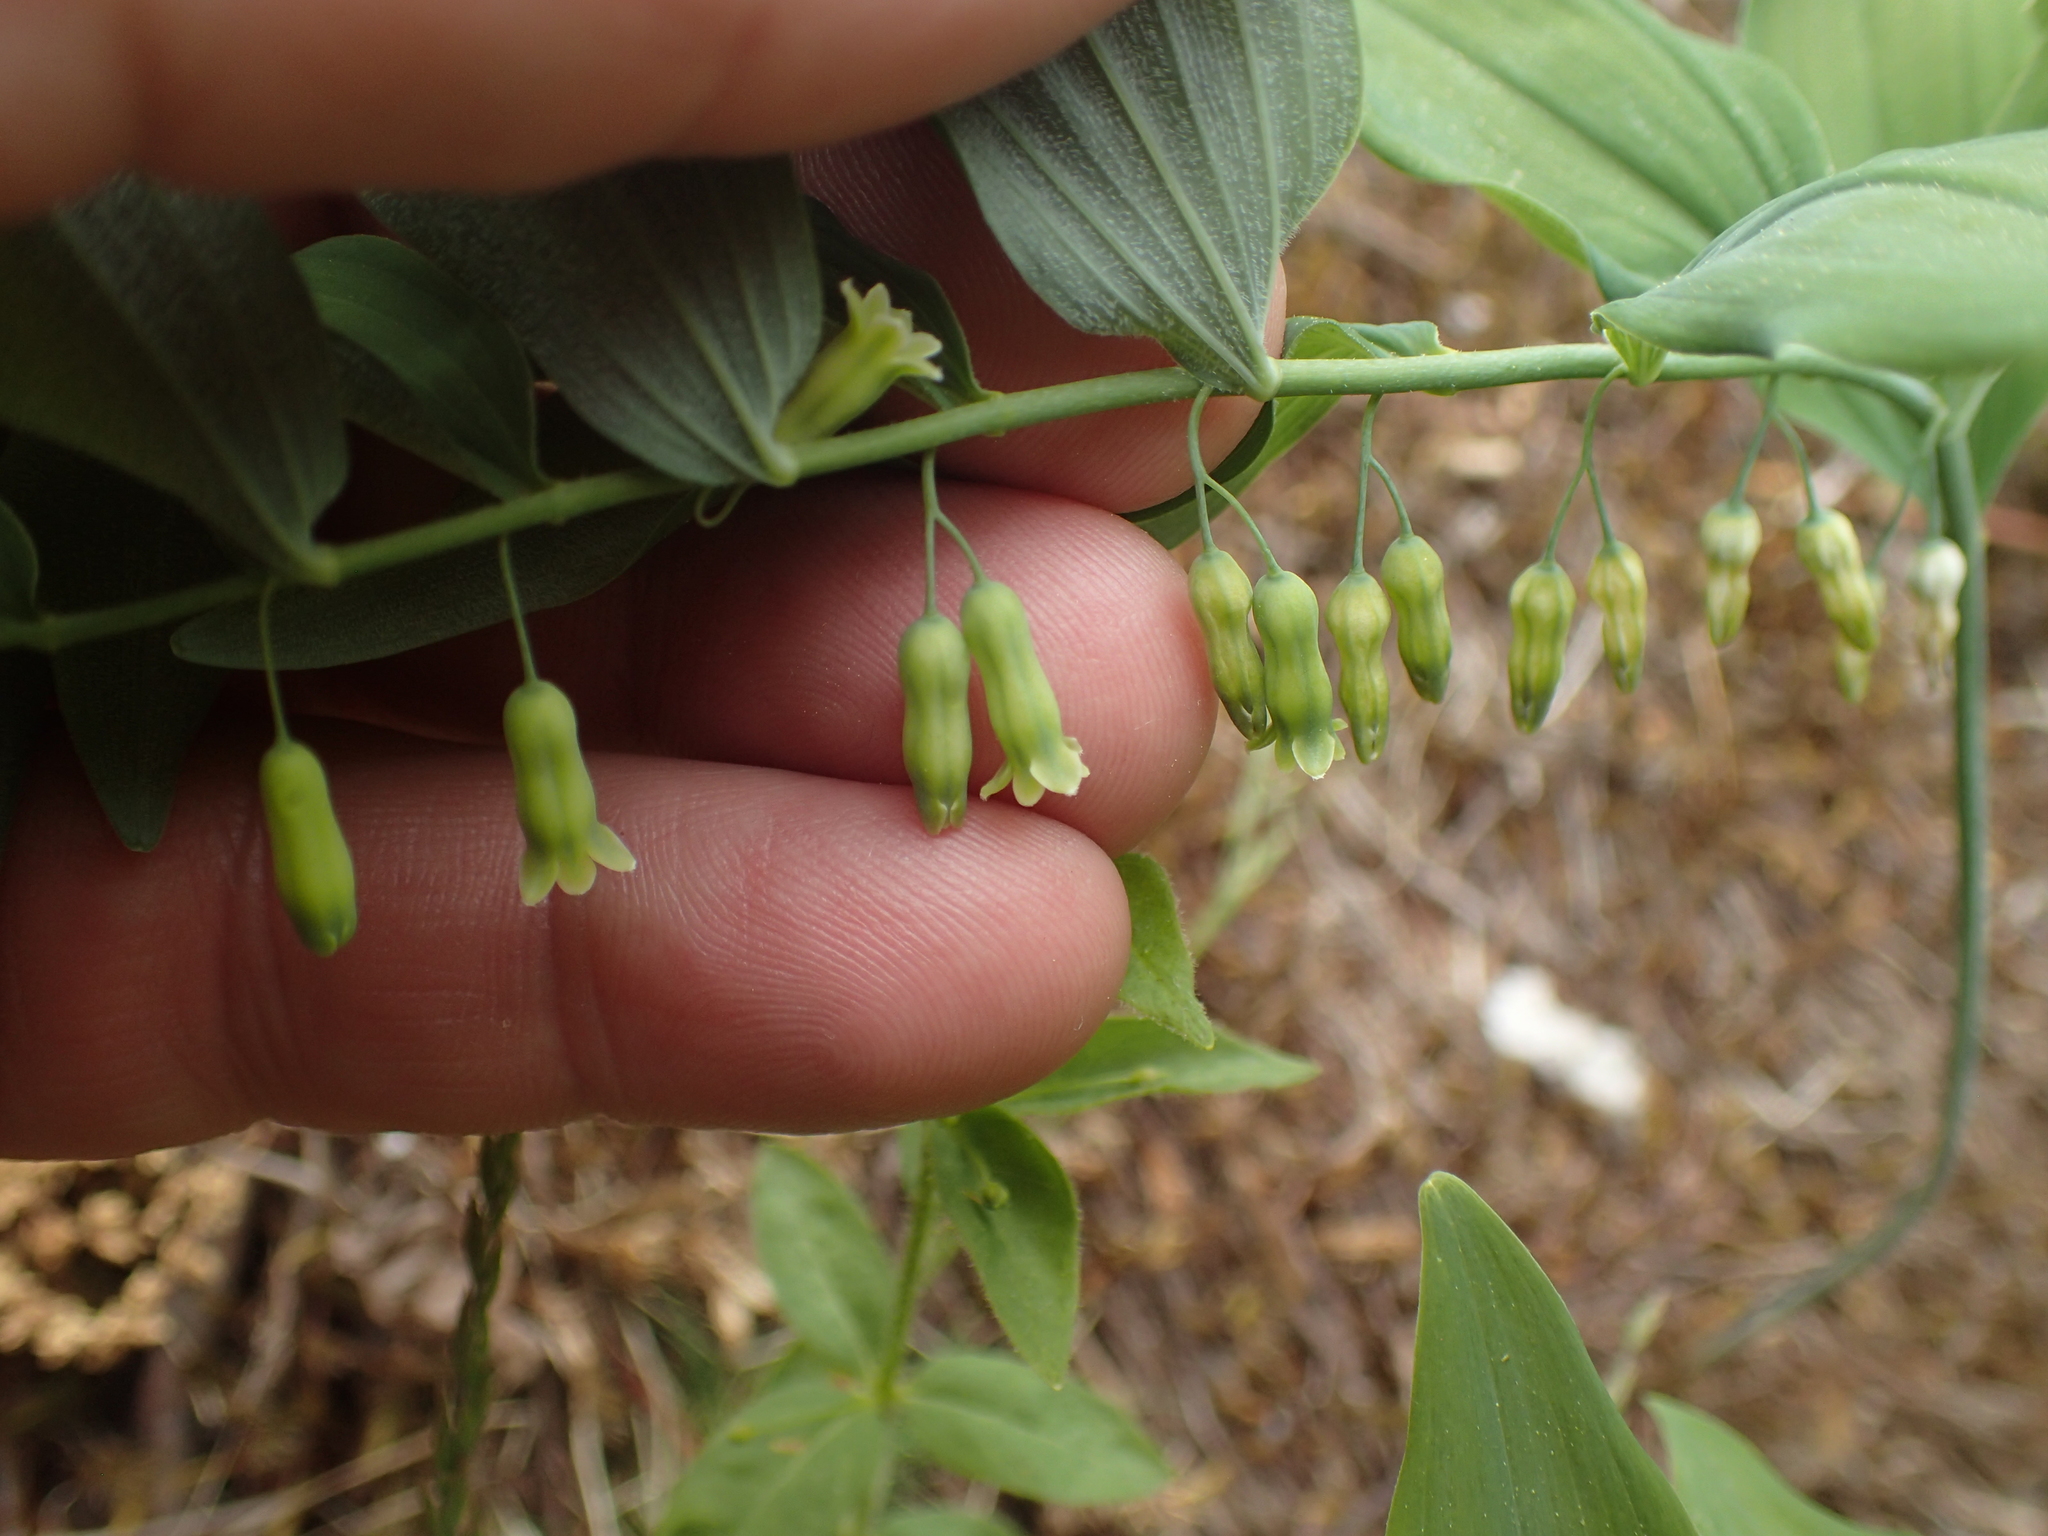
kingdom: Plantae
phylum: Tracheophyta
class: Liliopsida
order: Asparagales
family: Asparagaceae
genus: Polygonatum
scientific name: Polygonatum pubescens
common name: Downy solomon's seal
